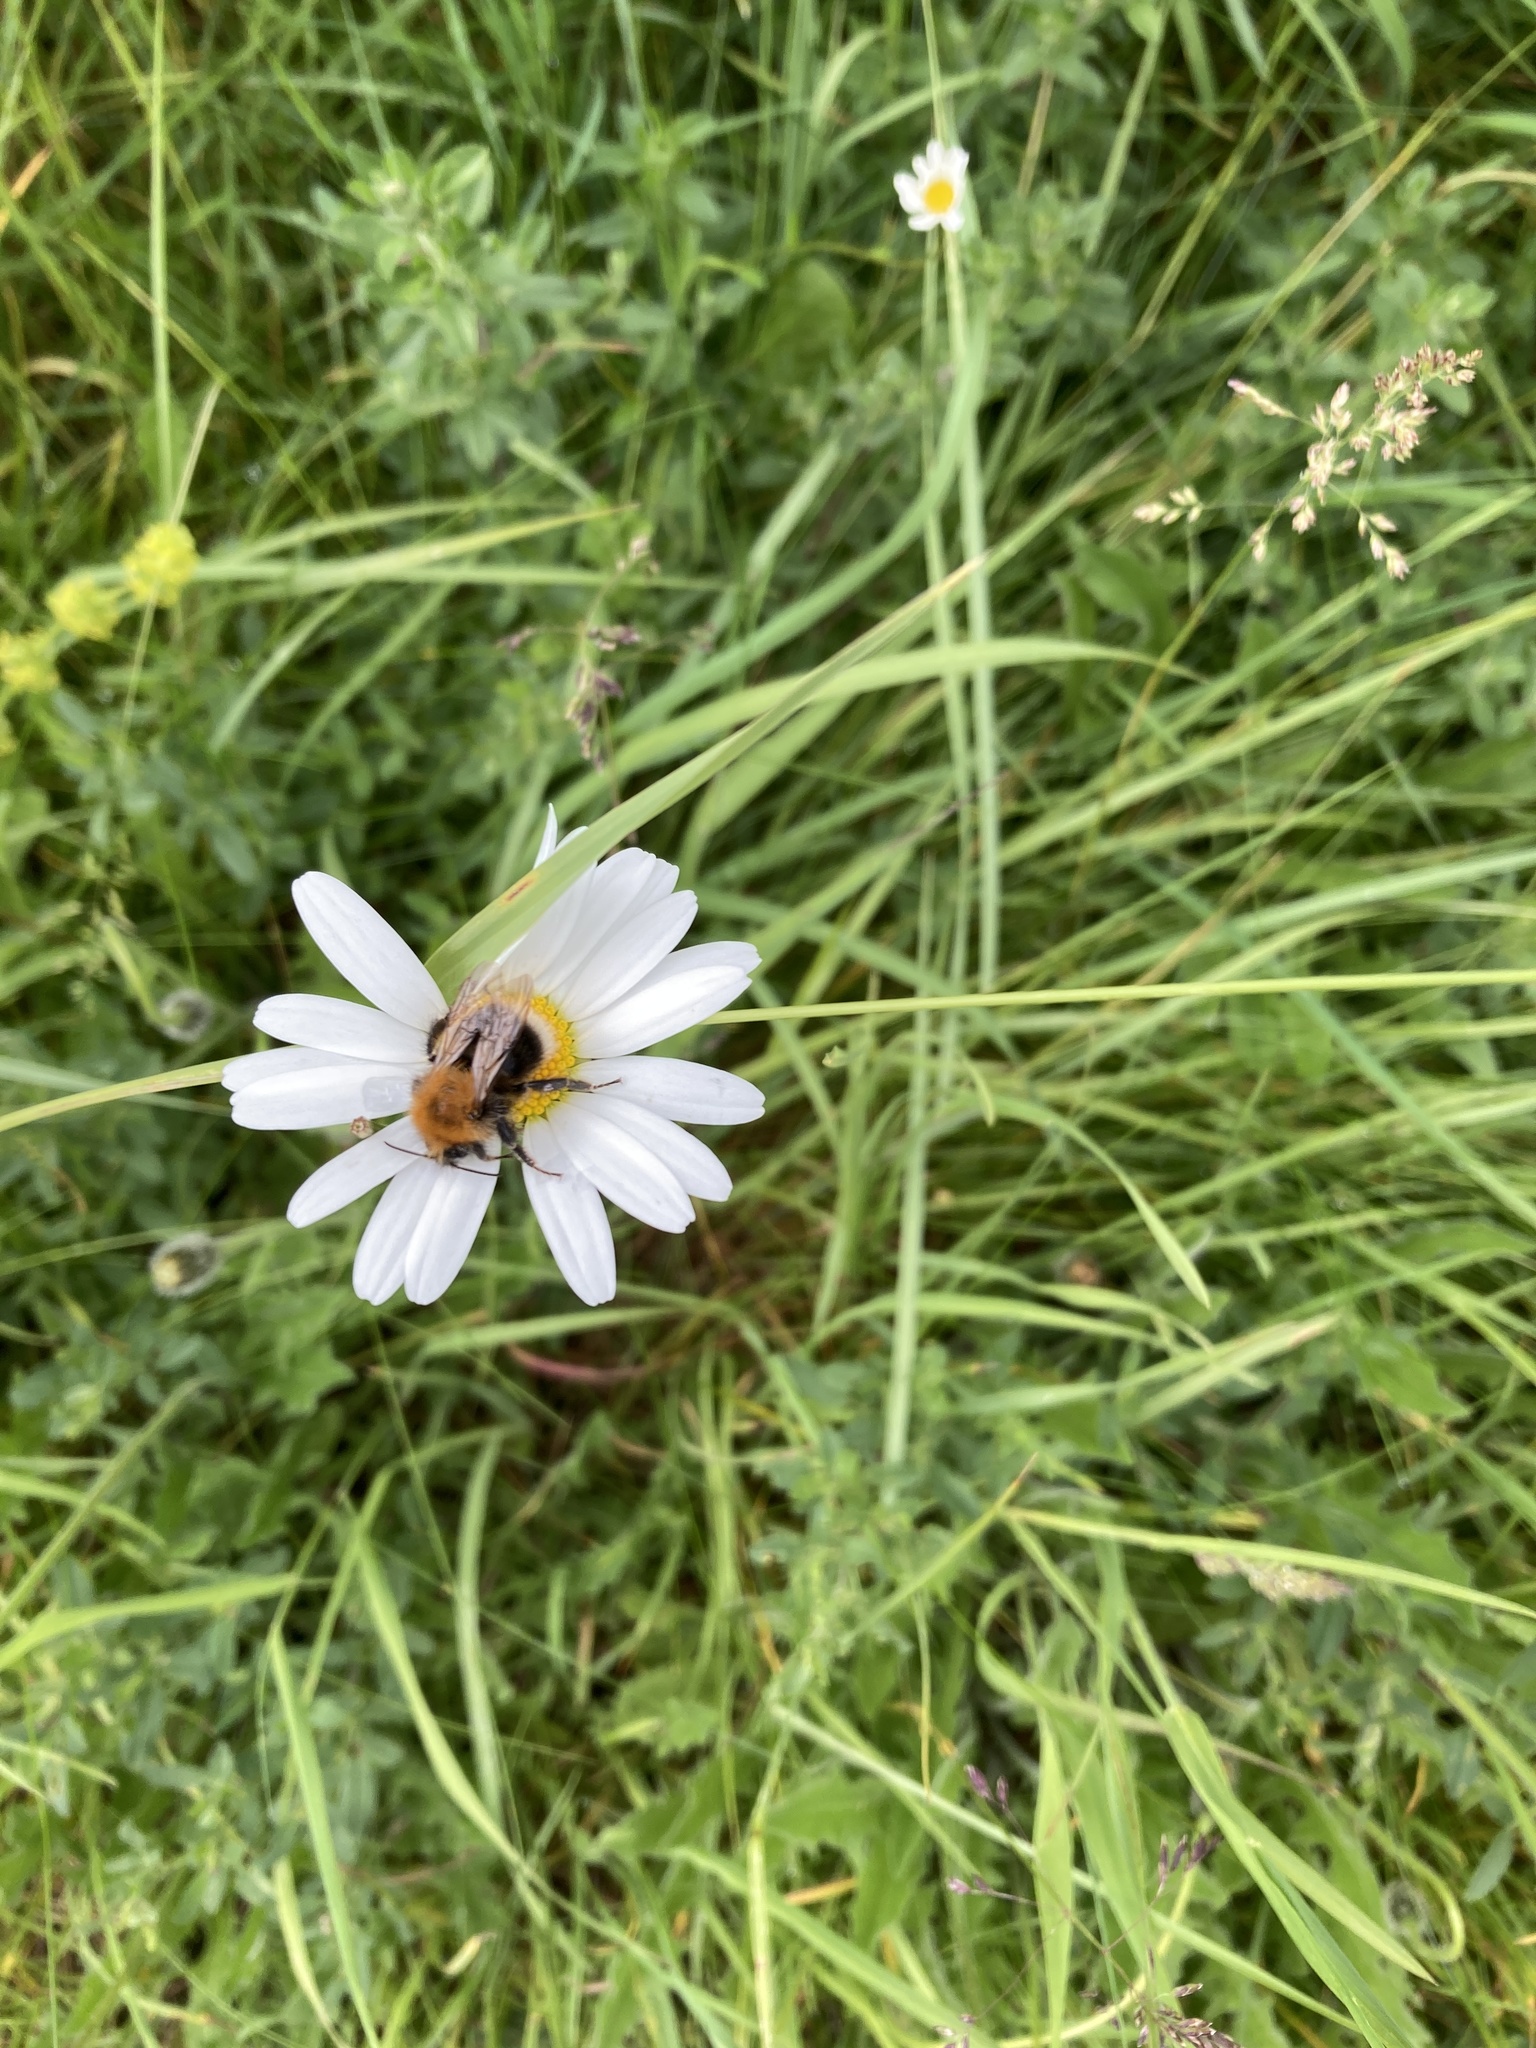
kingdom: Animalia
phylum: Arthropoda
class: Insecta
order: Hymenoptera
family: Apidae
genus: Bombus
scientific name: Bombus hypnorum
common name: New garden bumblebee
